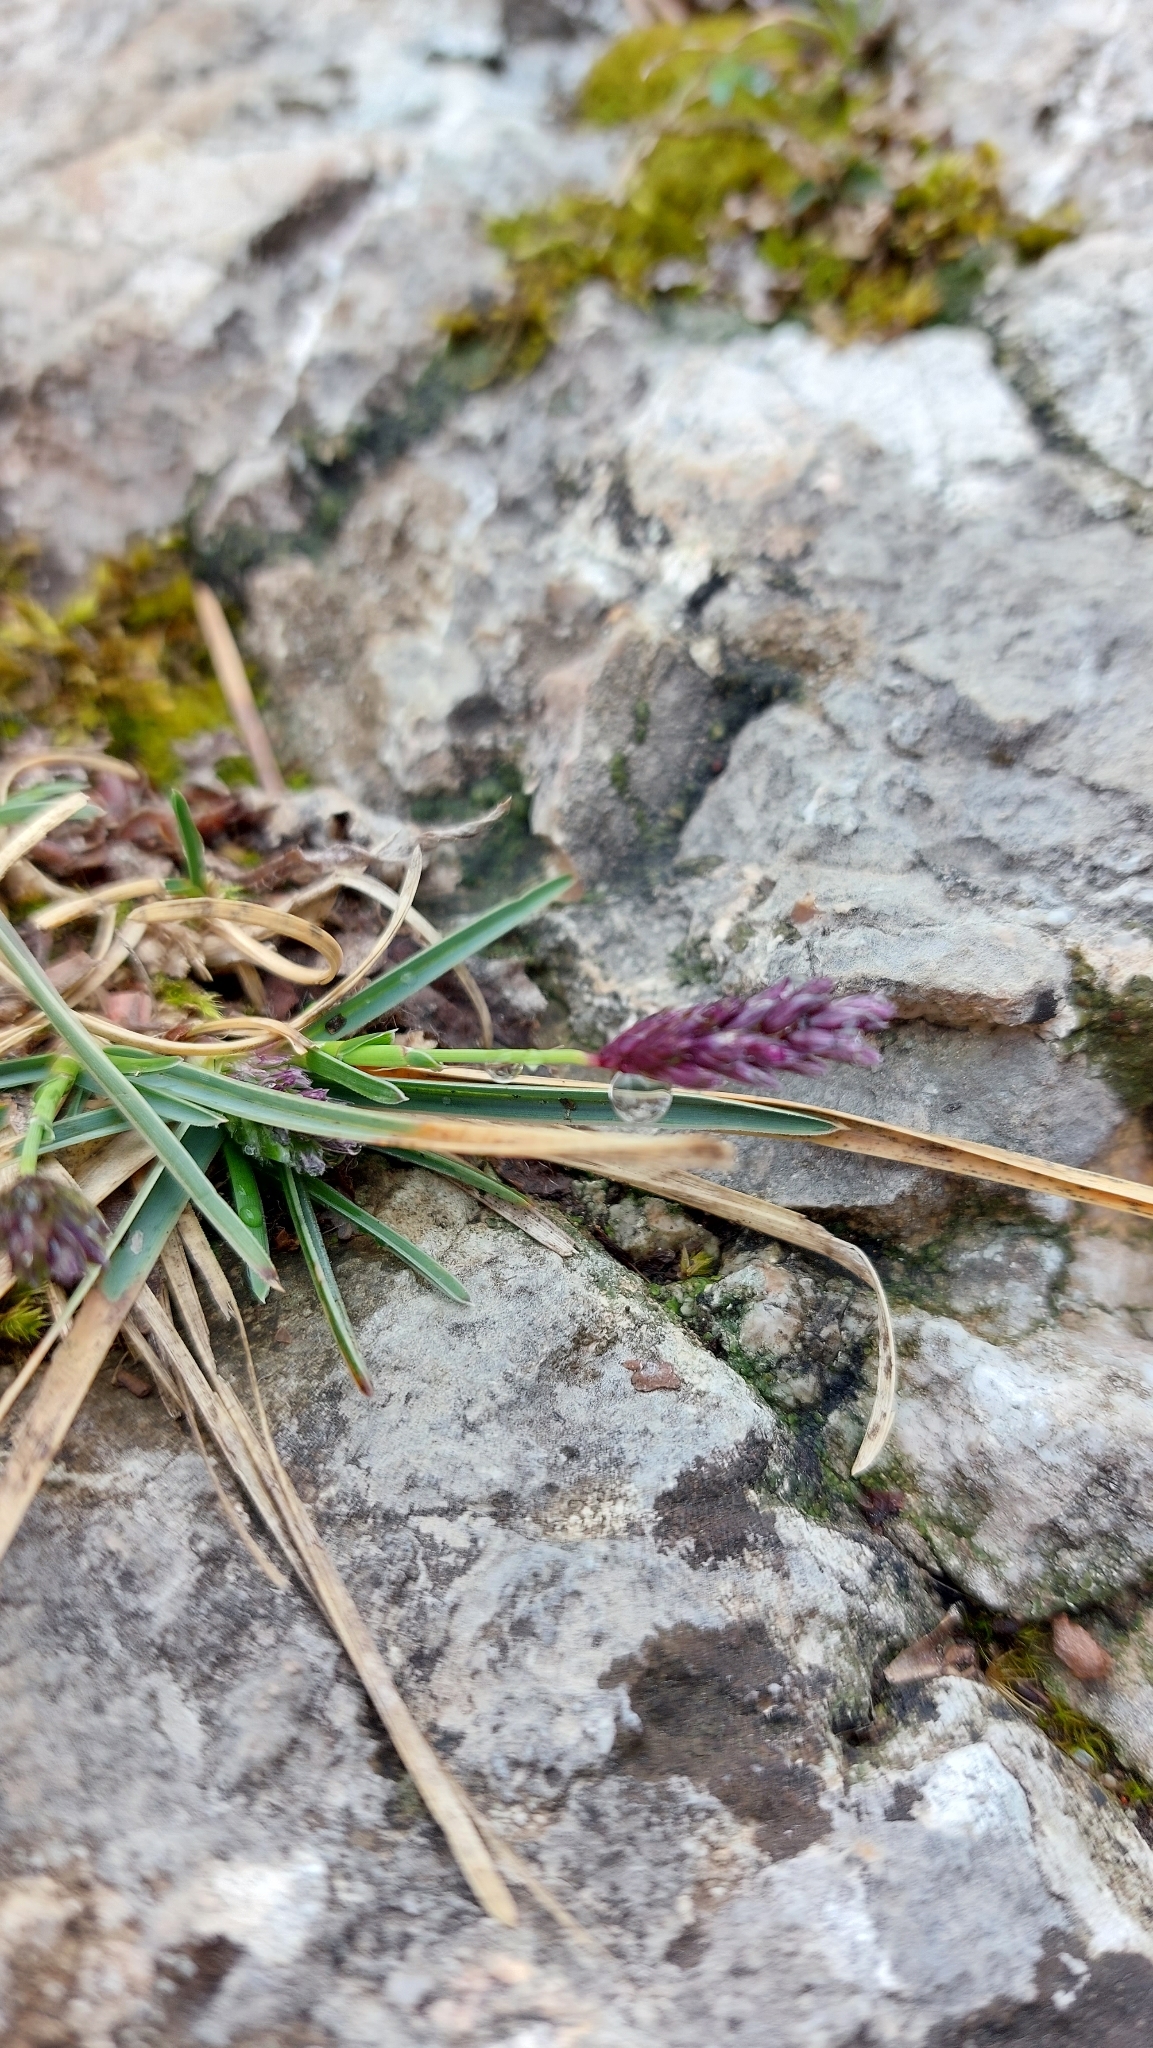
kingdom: Plantae
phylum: Tracheophyta
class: Liliopsida
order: Poales
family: Poaceae
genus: Sesleria
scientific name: Sesleria caerulea
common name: Blue moor-grass
